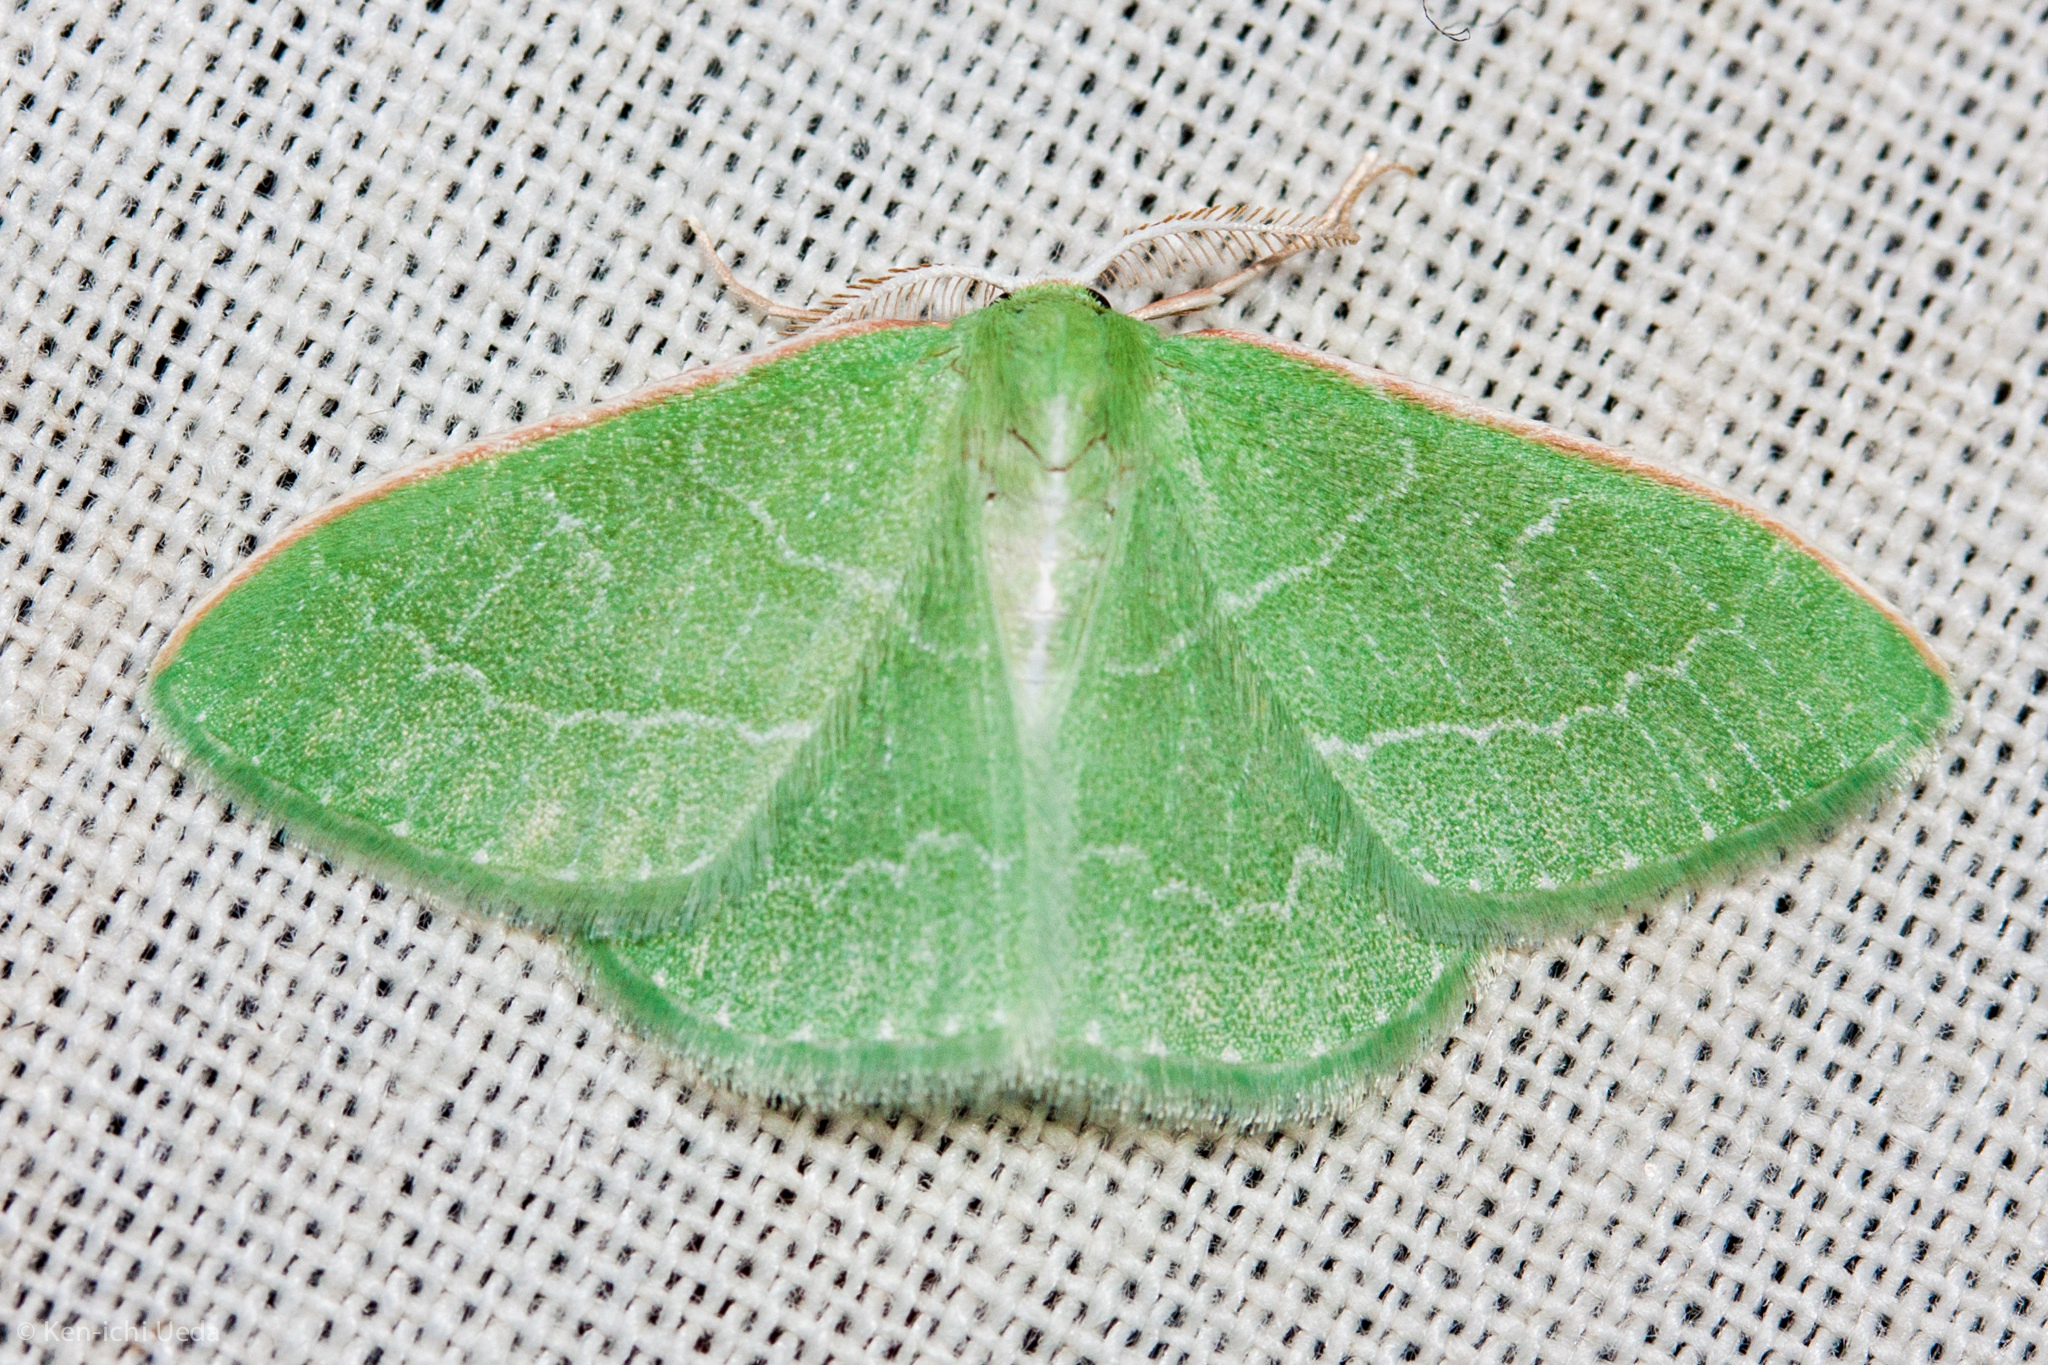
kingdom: Animalia
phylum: Arthropoda
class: Insecta
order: Lepidoptera
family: Geometridae
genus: Synchlora
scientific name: Synchlora aerata
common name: Wavy-lined emerald
